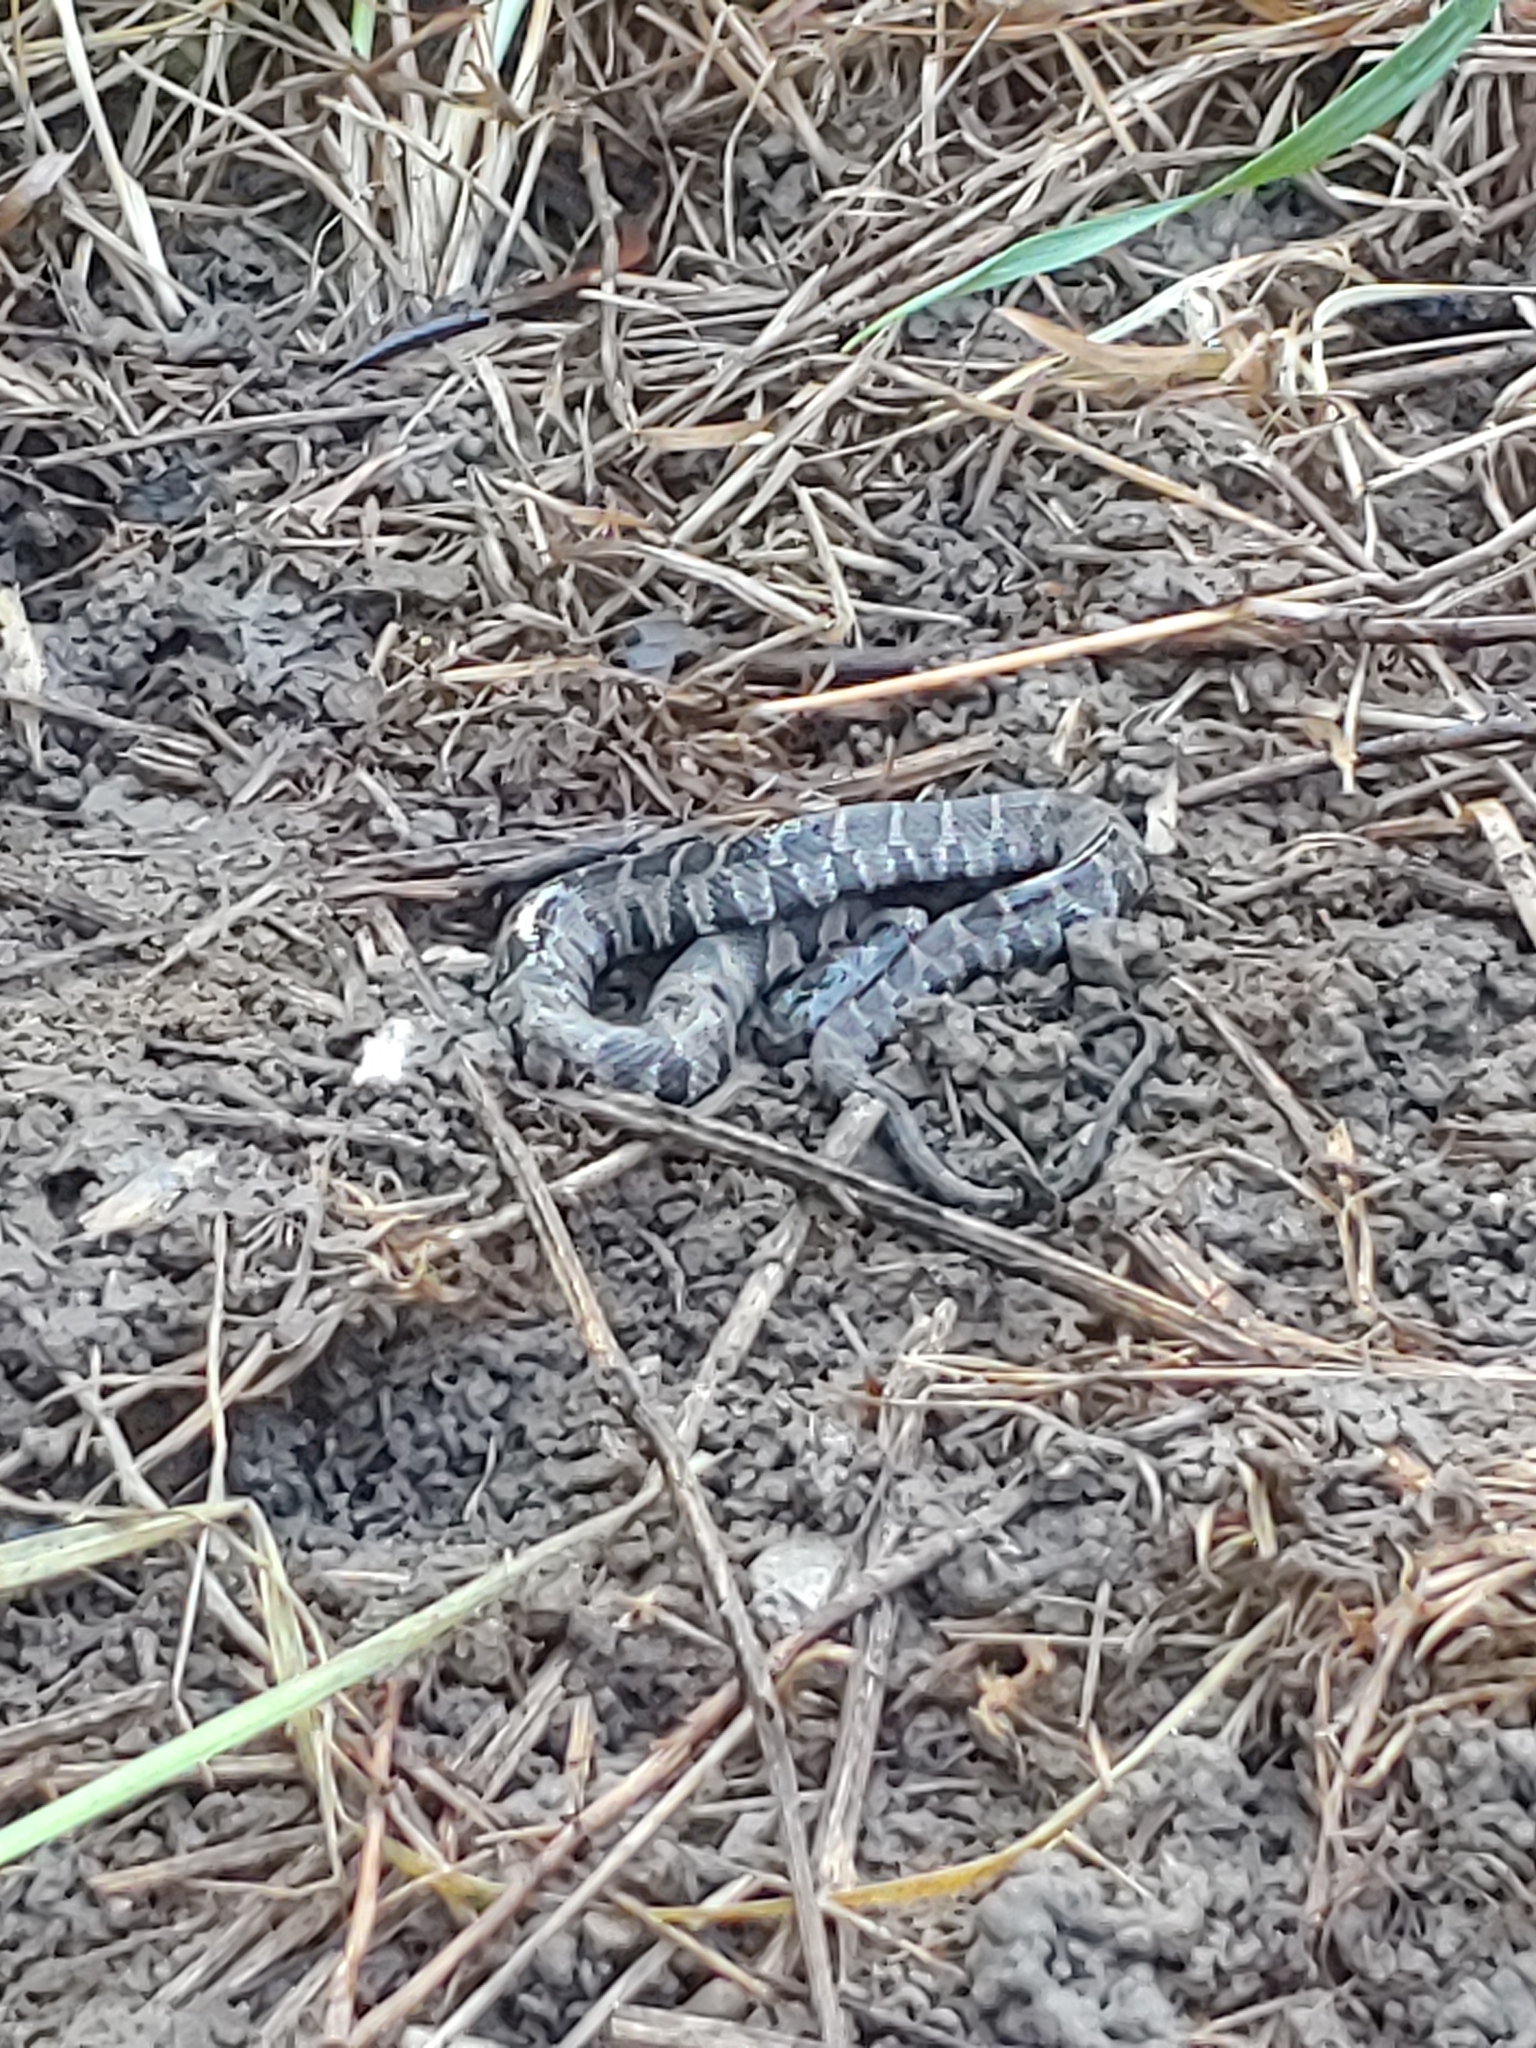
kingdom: Animalia
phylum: Chordata
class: Squamata
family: Colubridae
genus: Nerodia
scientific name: Nerodia sipedon
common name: Northern water snake
